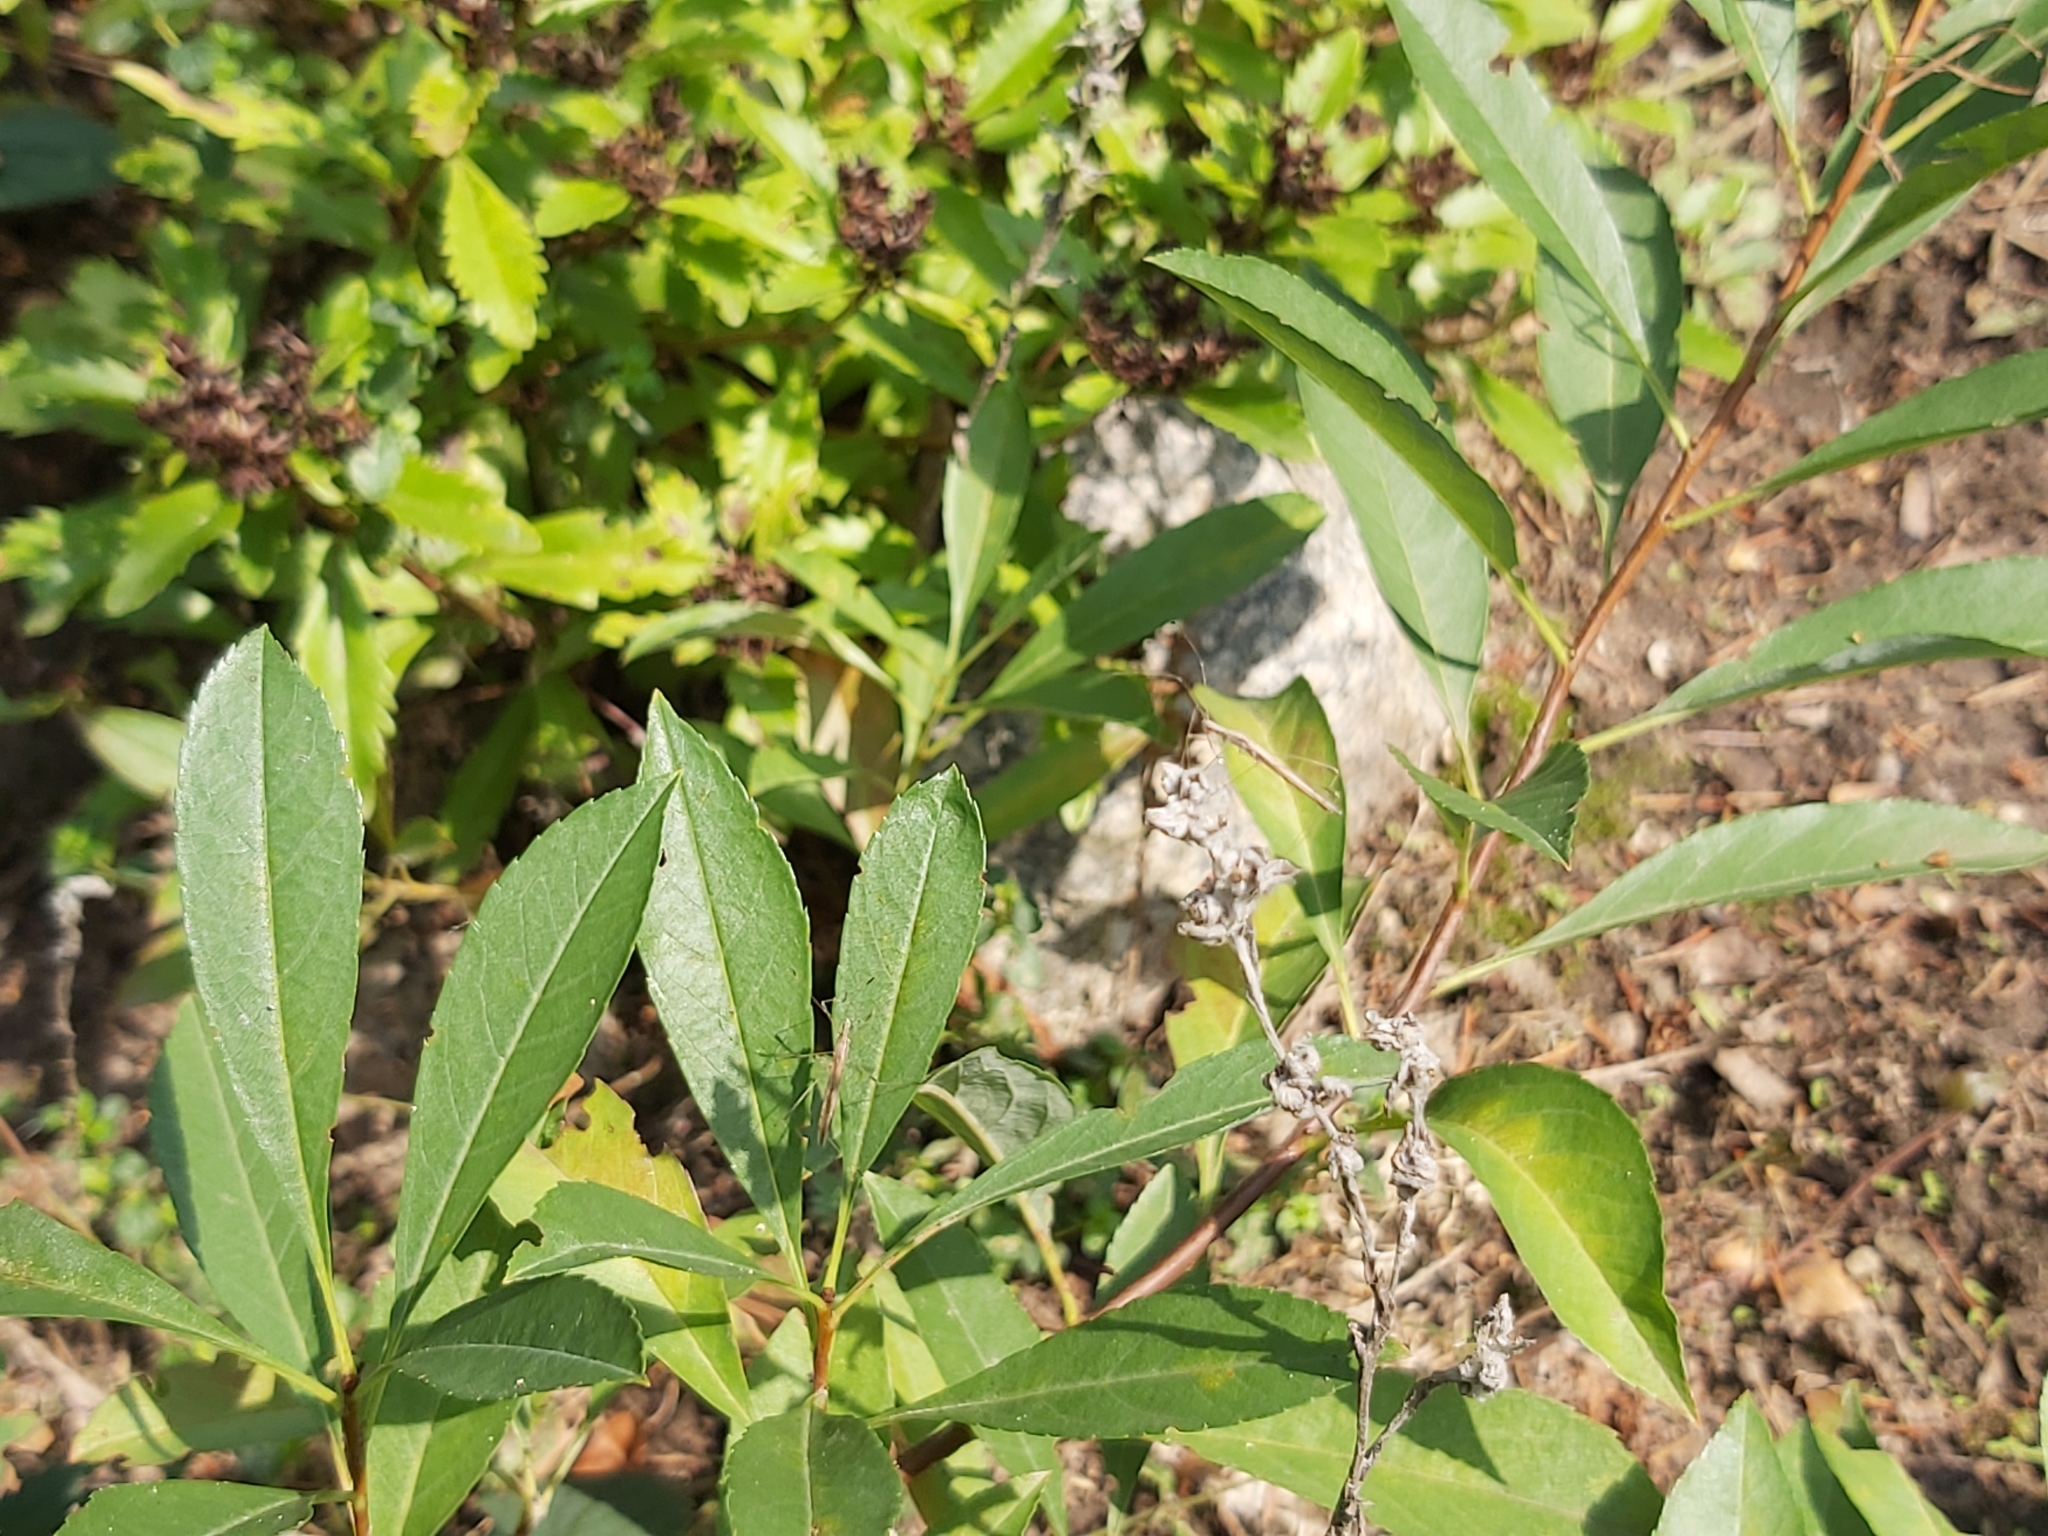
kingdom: Animalia
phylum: Arthropoda
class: Insecta
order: Hemiptera
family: Berytidae
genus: Neides
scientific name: Neides tipularius
